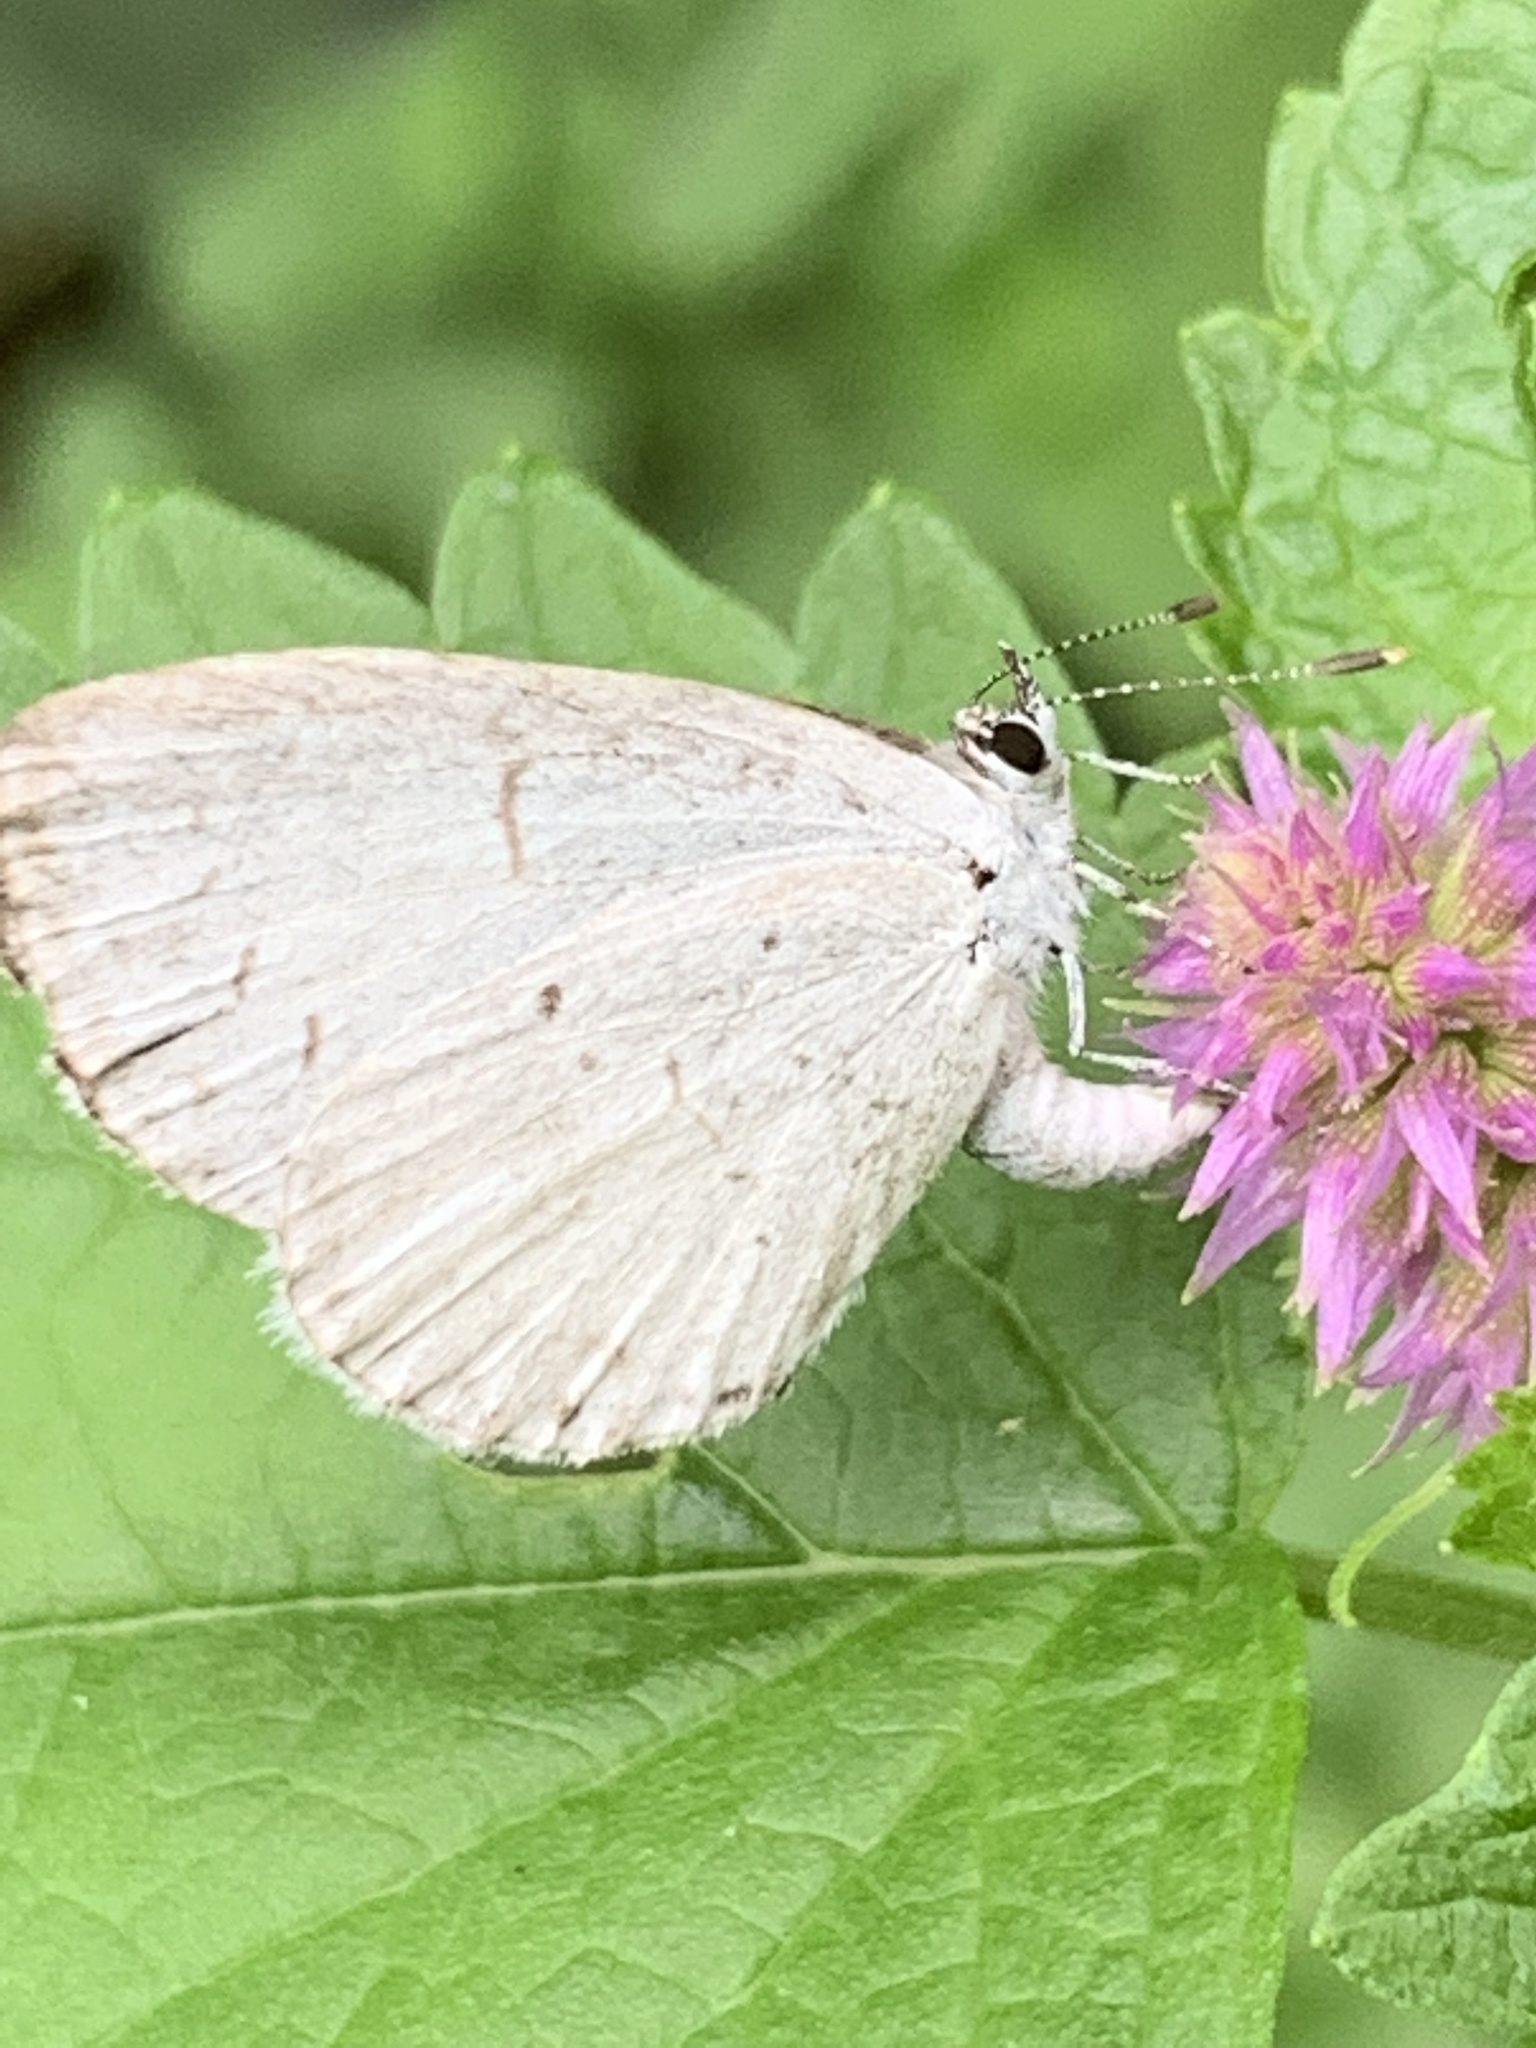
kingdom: Animalia
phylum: Arthropoda
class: Insecta
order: Lepidoptera
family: Lycaenidae
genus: Cyaniris
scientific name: Cyaniris neglecta
